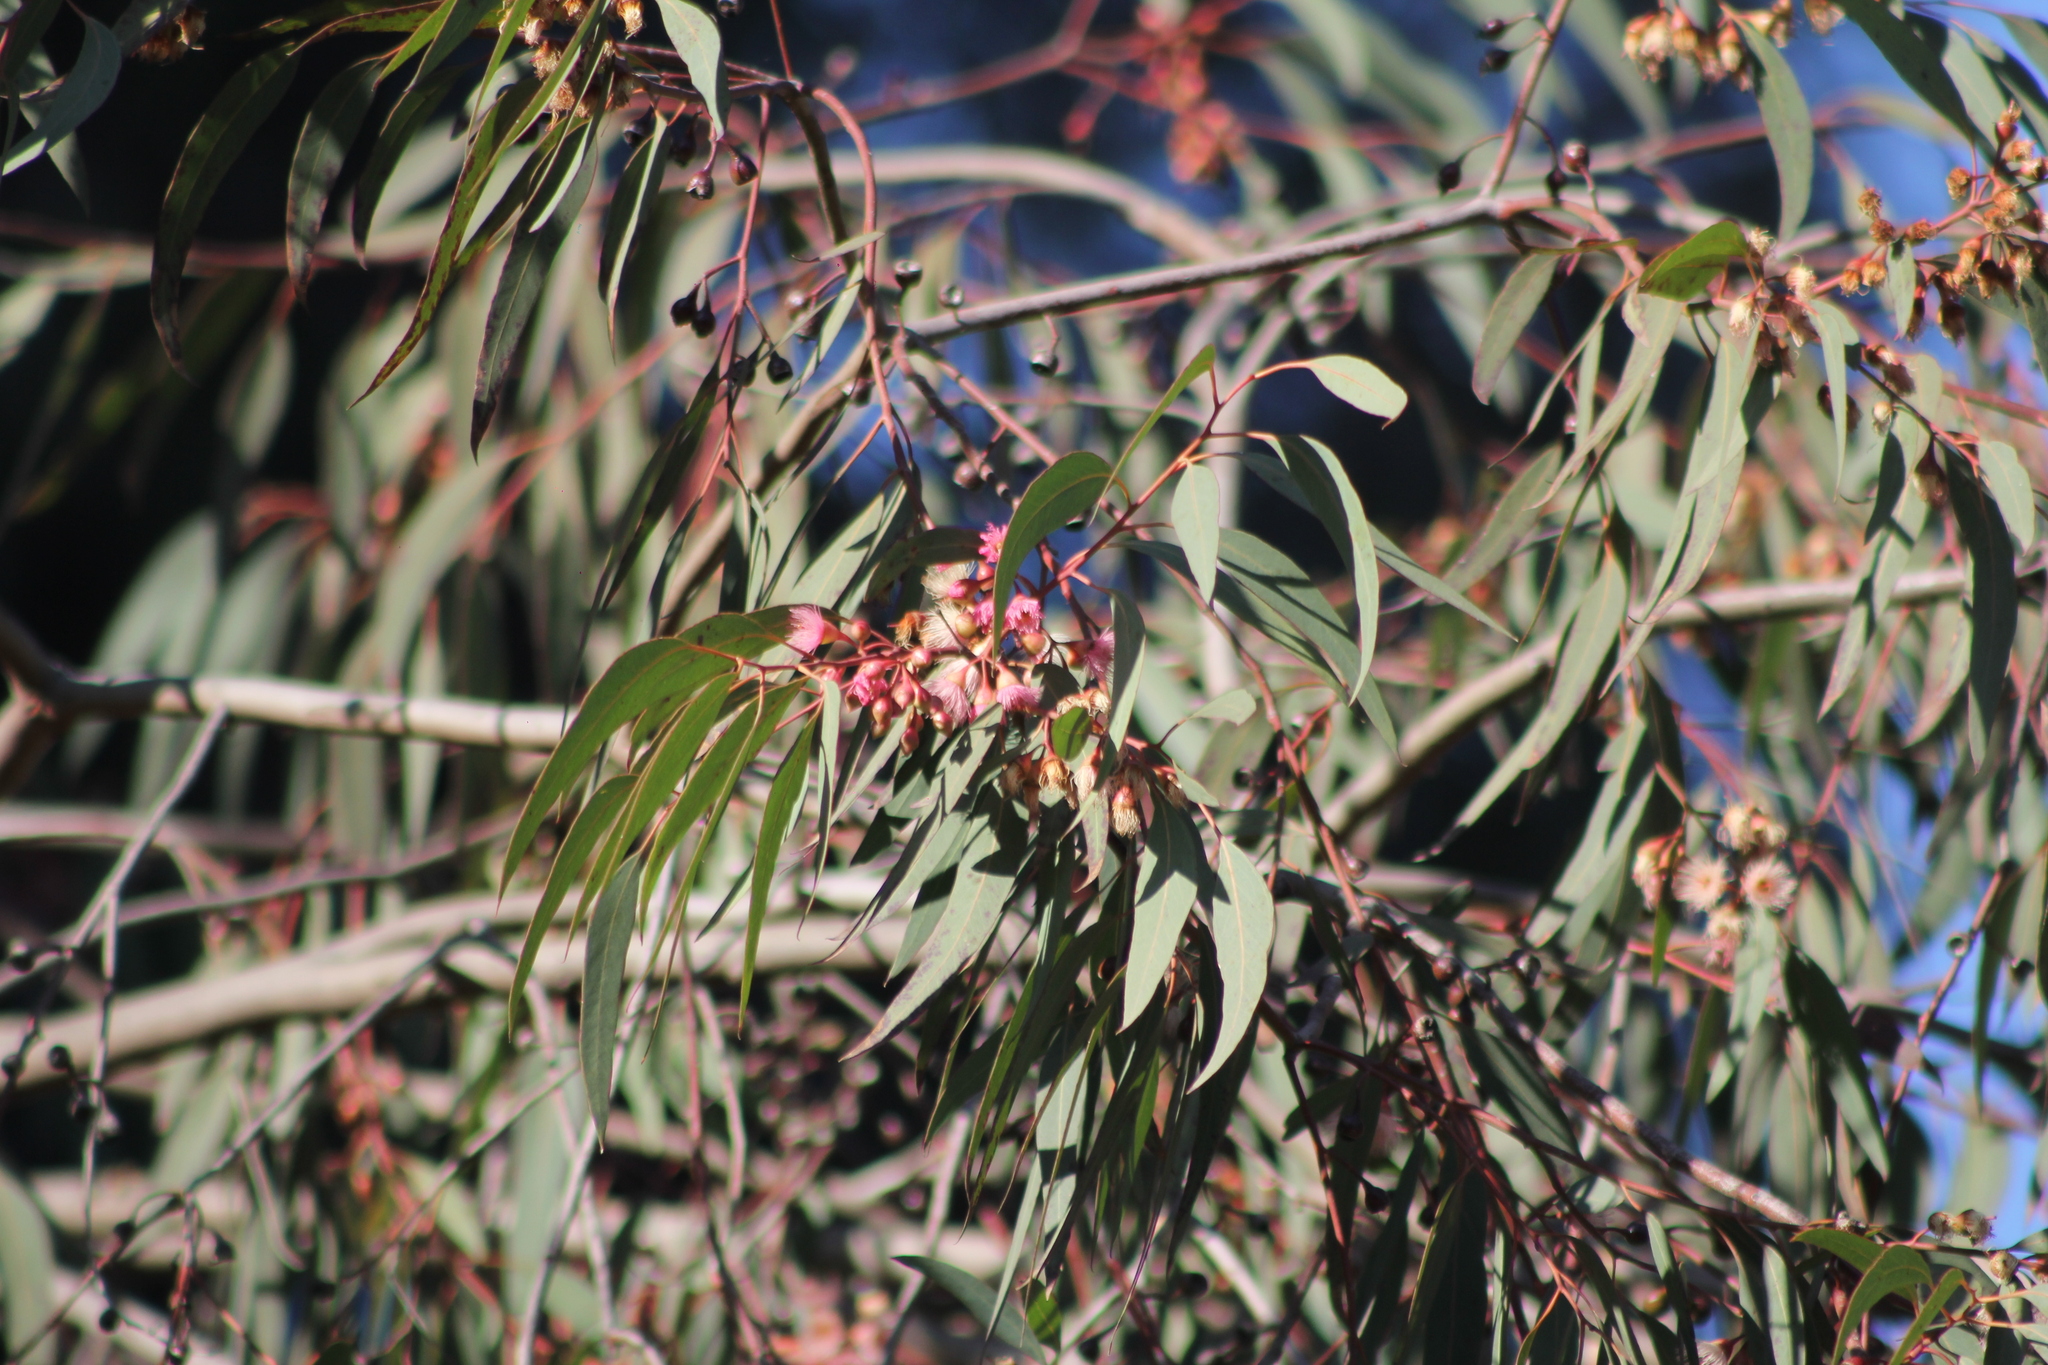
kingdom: Plantae
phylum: Tracheophyta
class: Magnoliopsida
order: Myrtales
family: Myrtaceae
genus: Eucalyptus
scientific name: Eucalyptus sideroxylon
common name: Red ironbark
